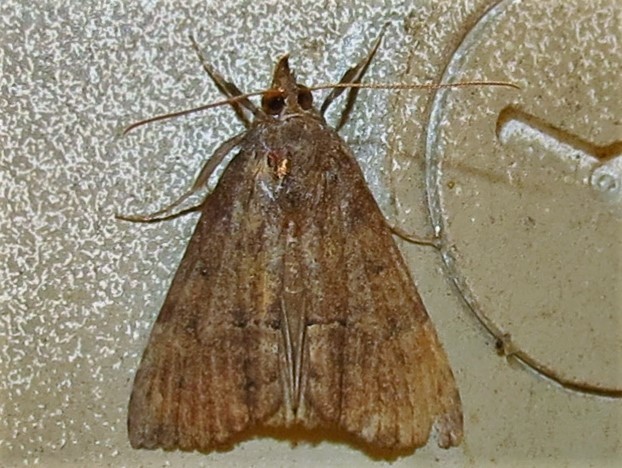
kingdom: Animalia
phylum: Arthropoda
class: Insecta
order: Lepidoptera
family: Erebidae
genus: Hypena
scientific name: Hypena scabra
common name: Green cloverworm
